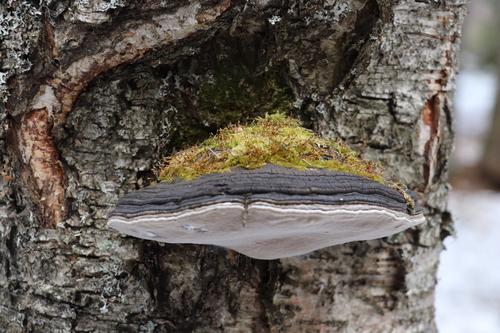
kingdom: Fungi
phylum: Basidiomycota
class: Agaricomycetes
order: Hymenochaetales
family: Hymenochaetaceae
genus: Phellinus
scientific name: Phellinus igniarius
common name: Willow bracket
